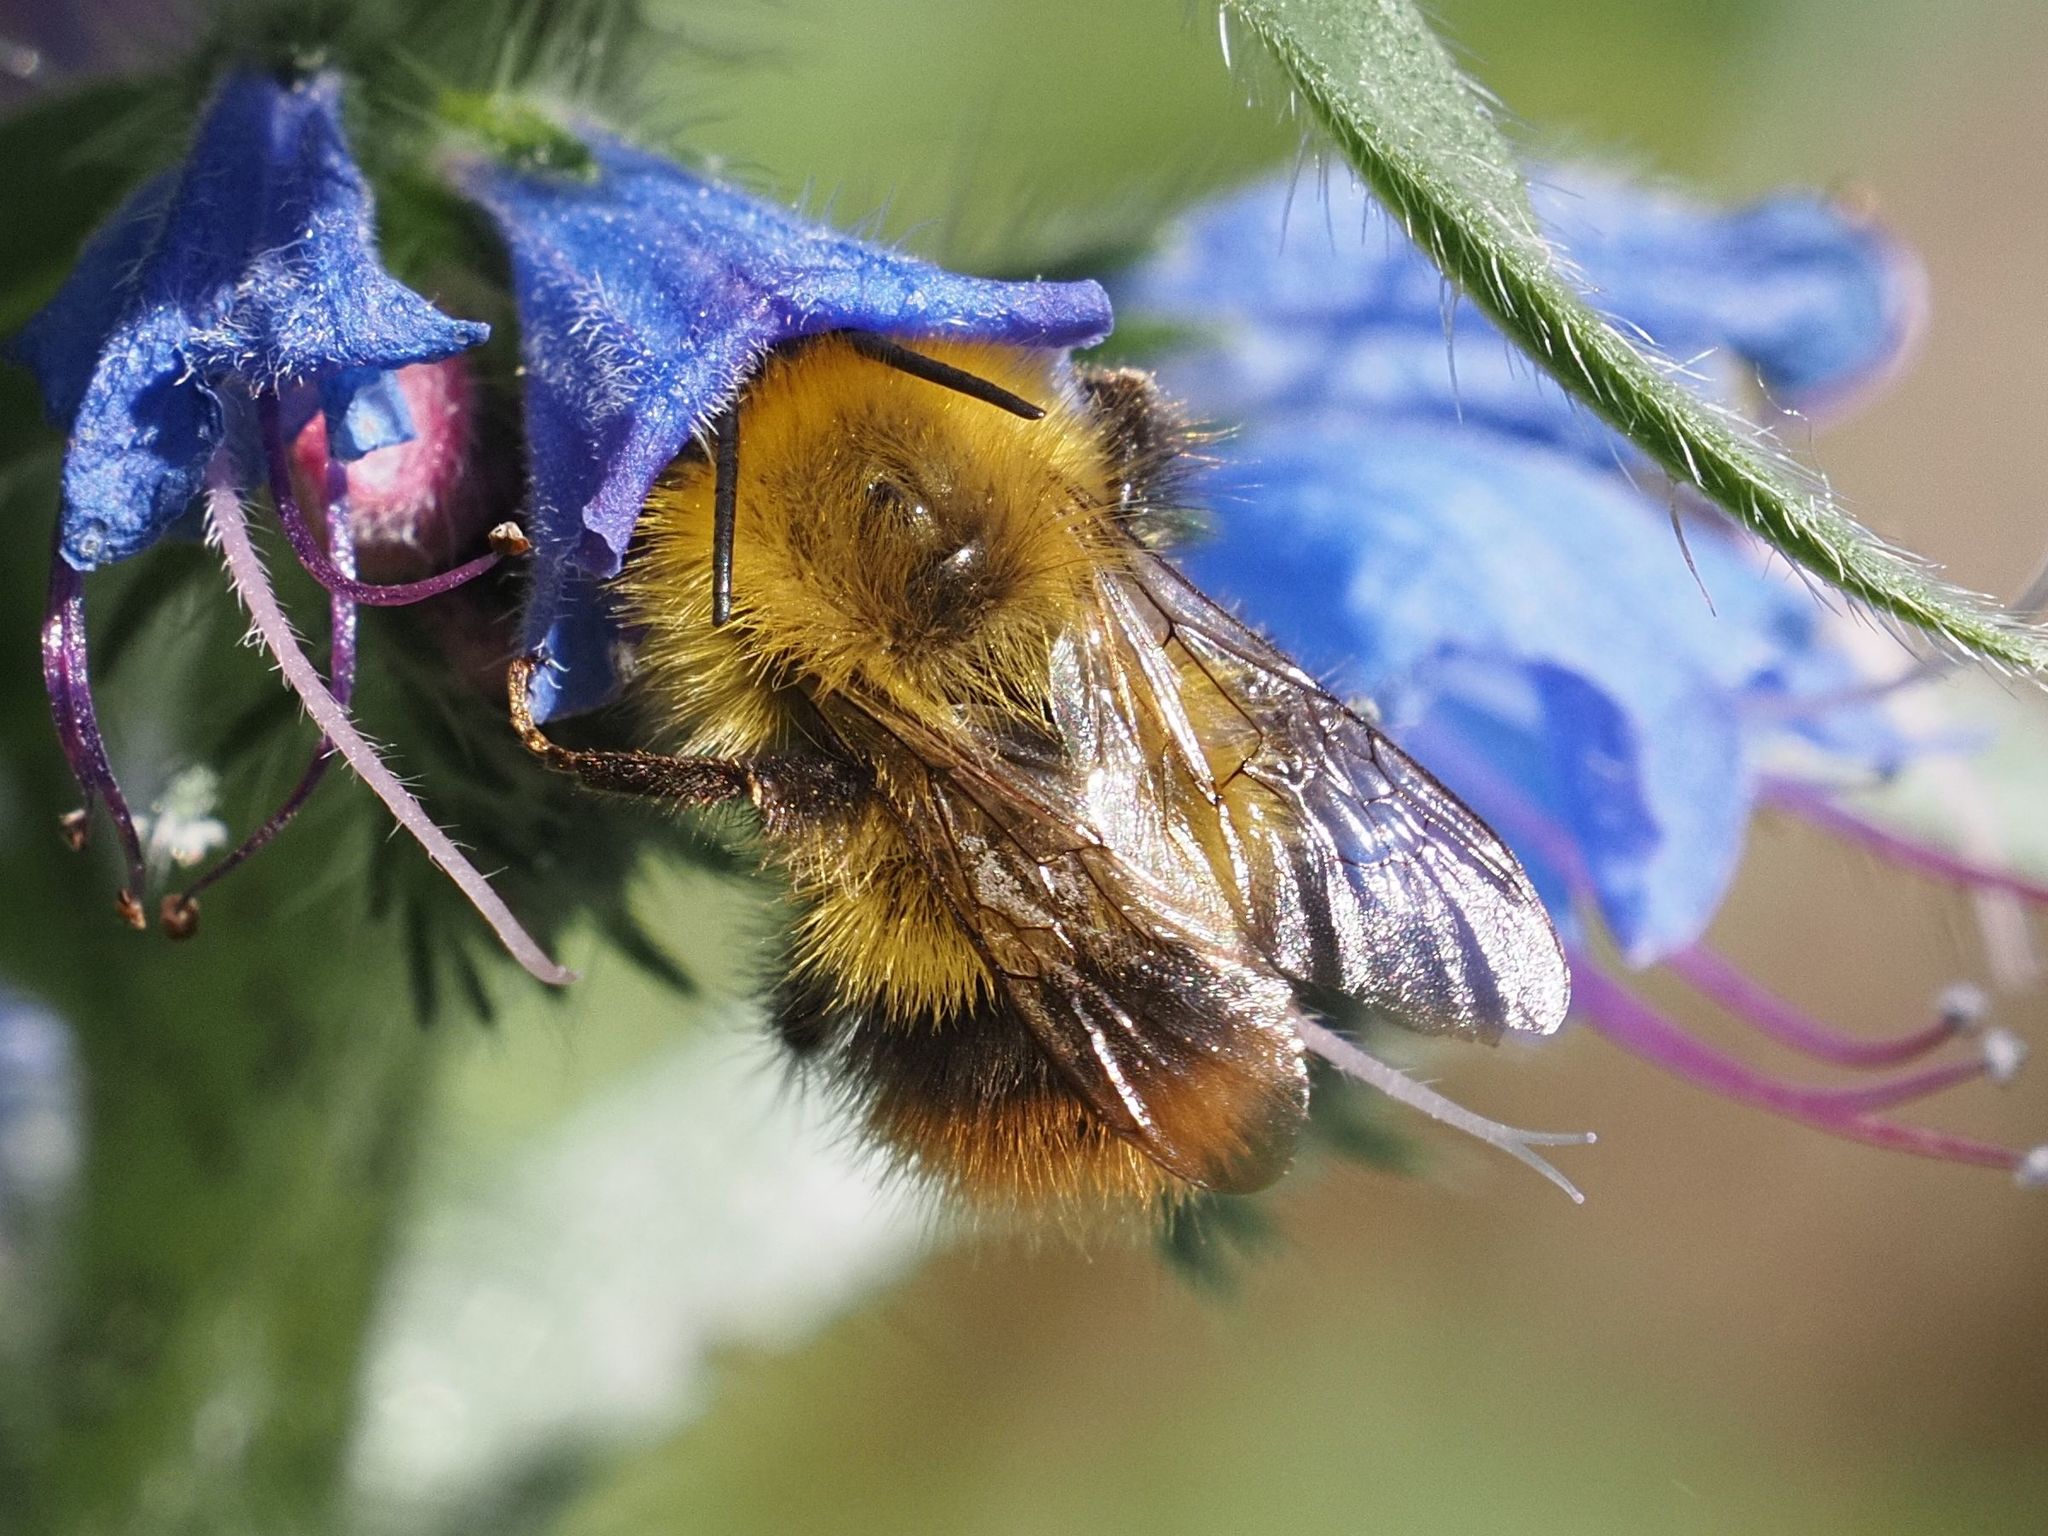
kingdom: Animalia
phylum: Arthropoda
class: Insecta
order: Hymenoptera
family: Apidae
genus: Bombus
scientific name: Bombus pratorum
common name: Early humble-bee
